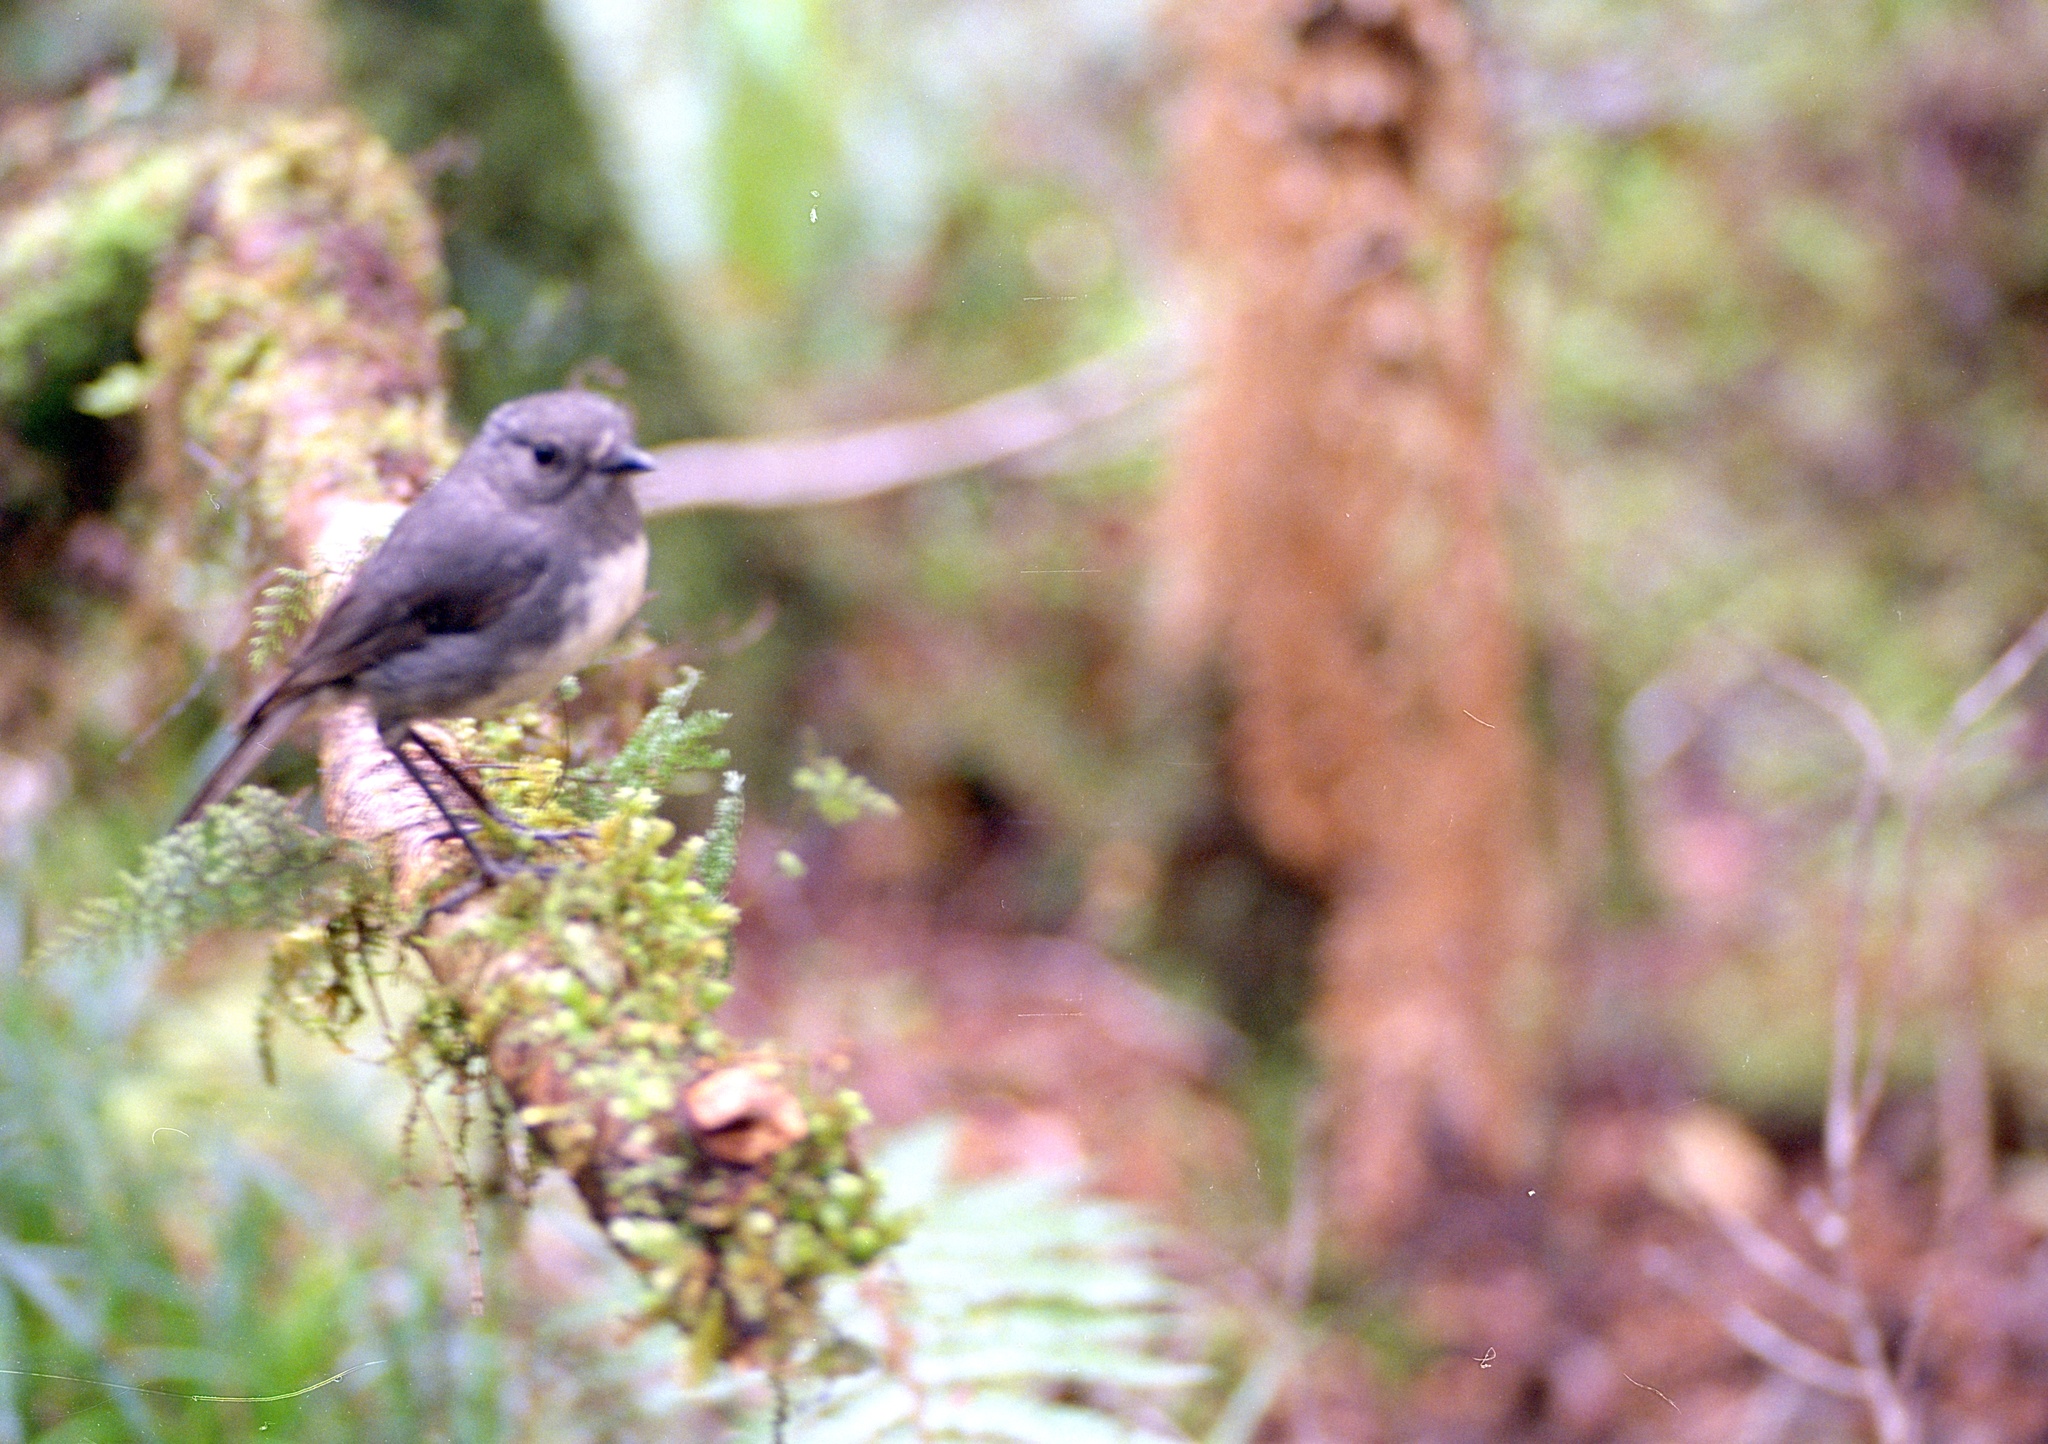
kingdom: Animalia
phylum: Chordata
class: Aves
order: Passeriformes
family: Petroicidae
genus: Petroica
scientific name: Petroica australis
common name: New zealand robin
